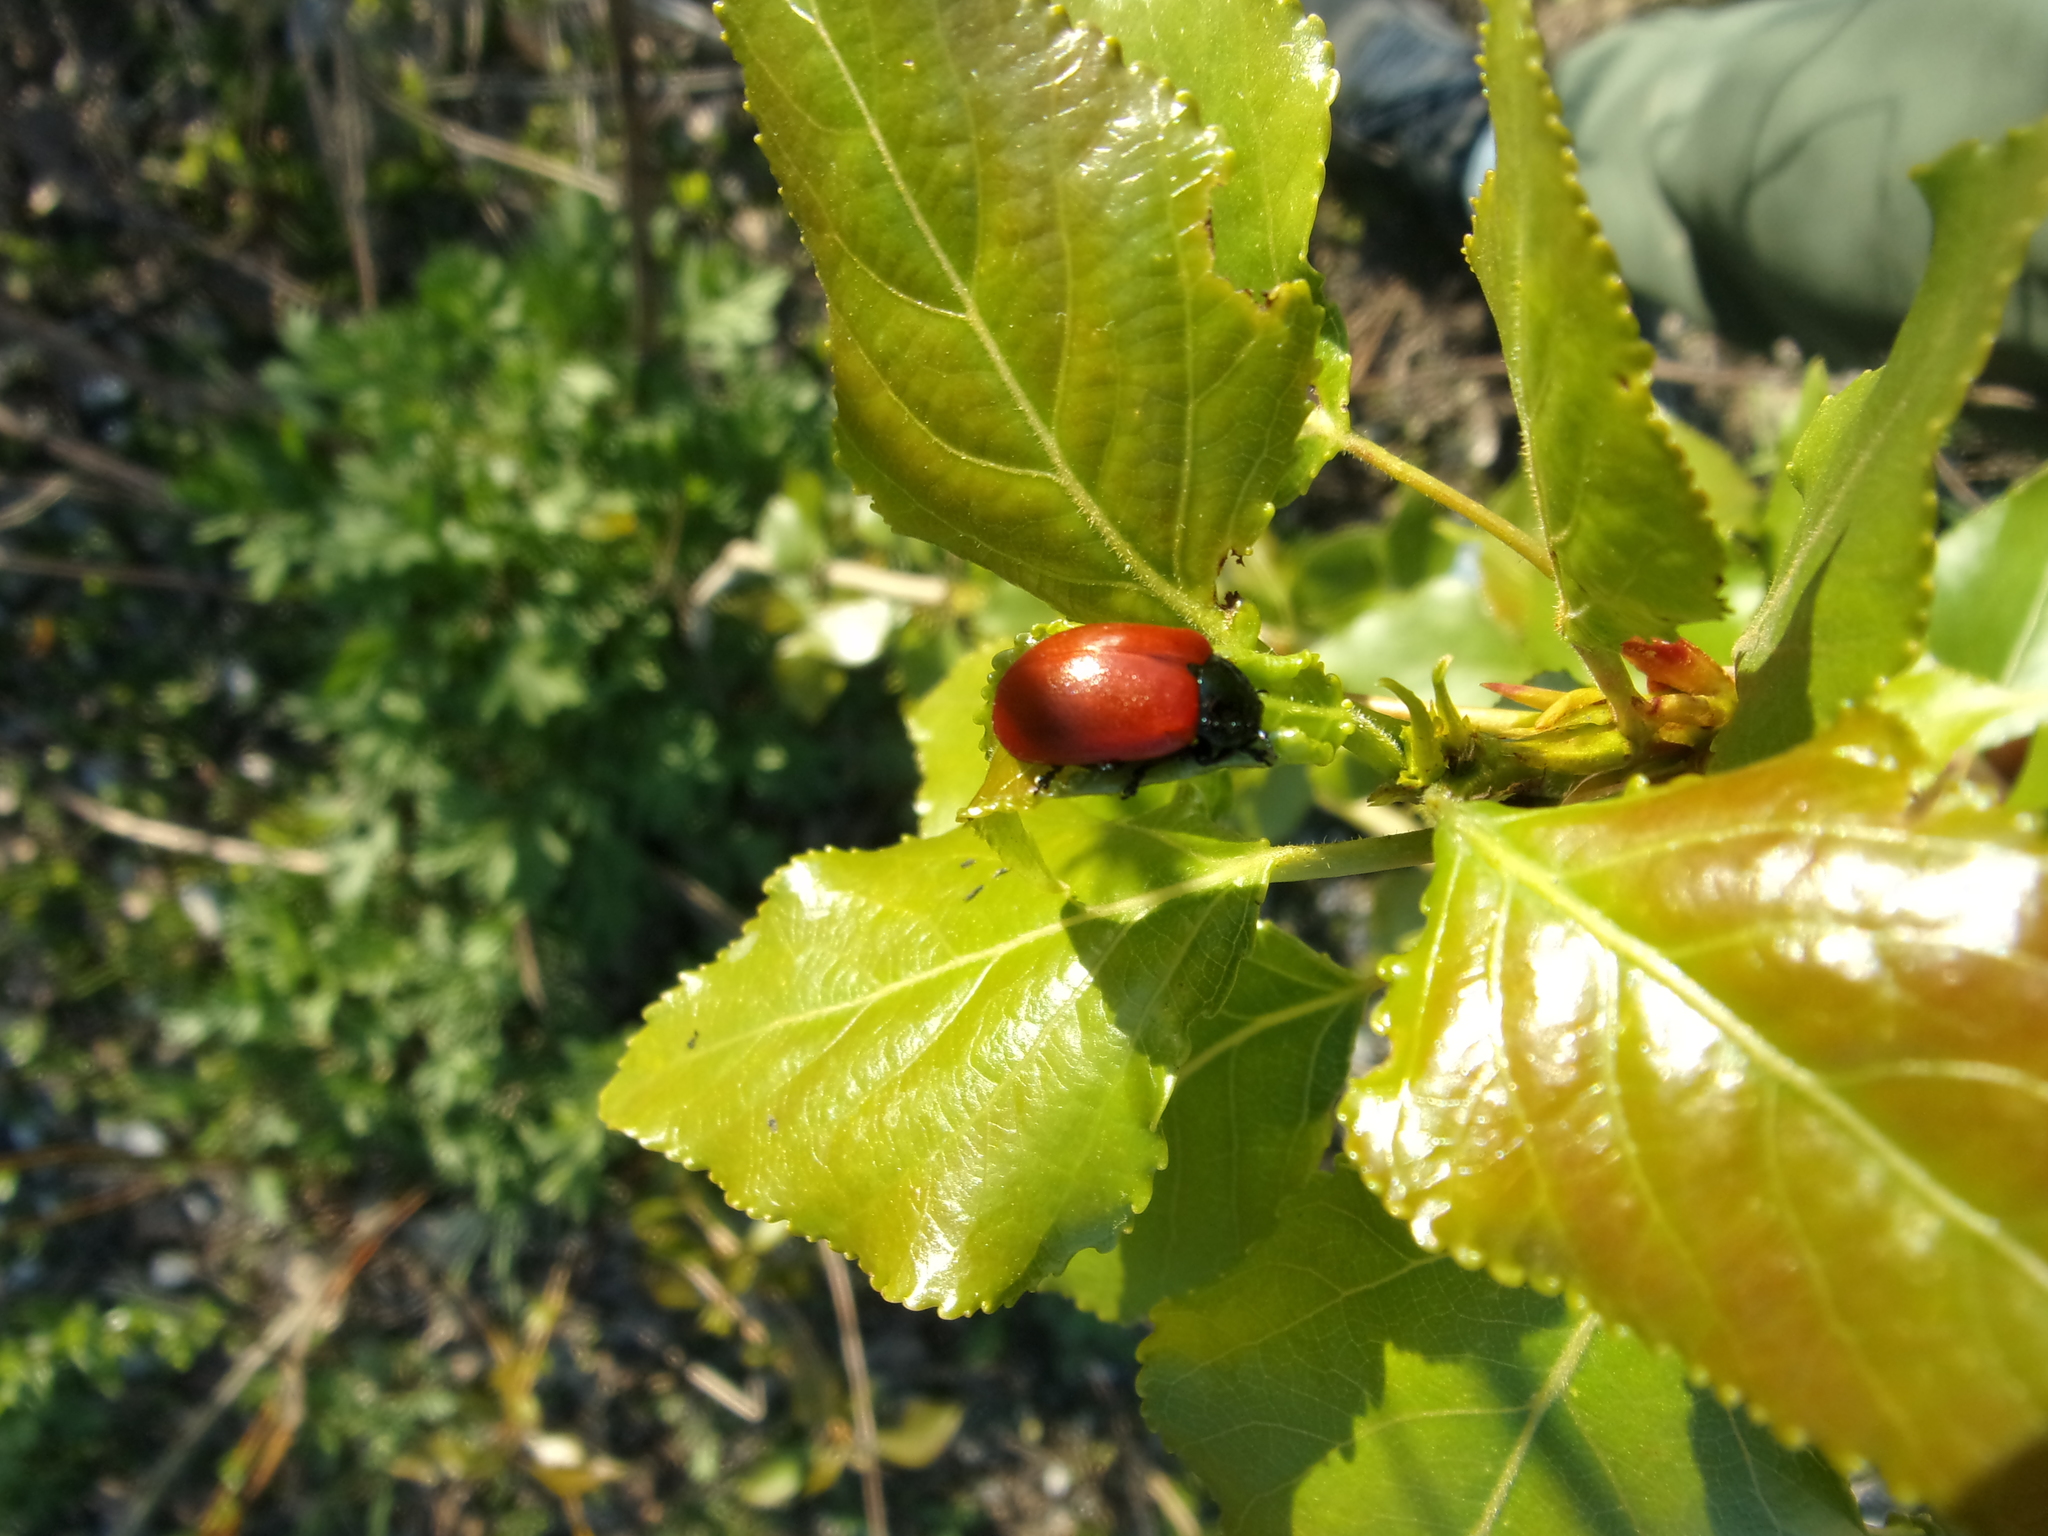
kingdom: Animalia
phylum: Arthropoda
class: Insecta
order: Coleoptera
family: Chrysomelidae
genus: Chrysomela
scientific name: Chrysomela populi
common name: Red poplar leaf beetle
